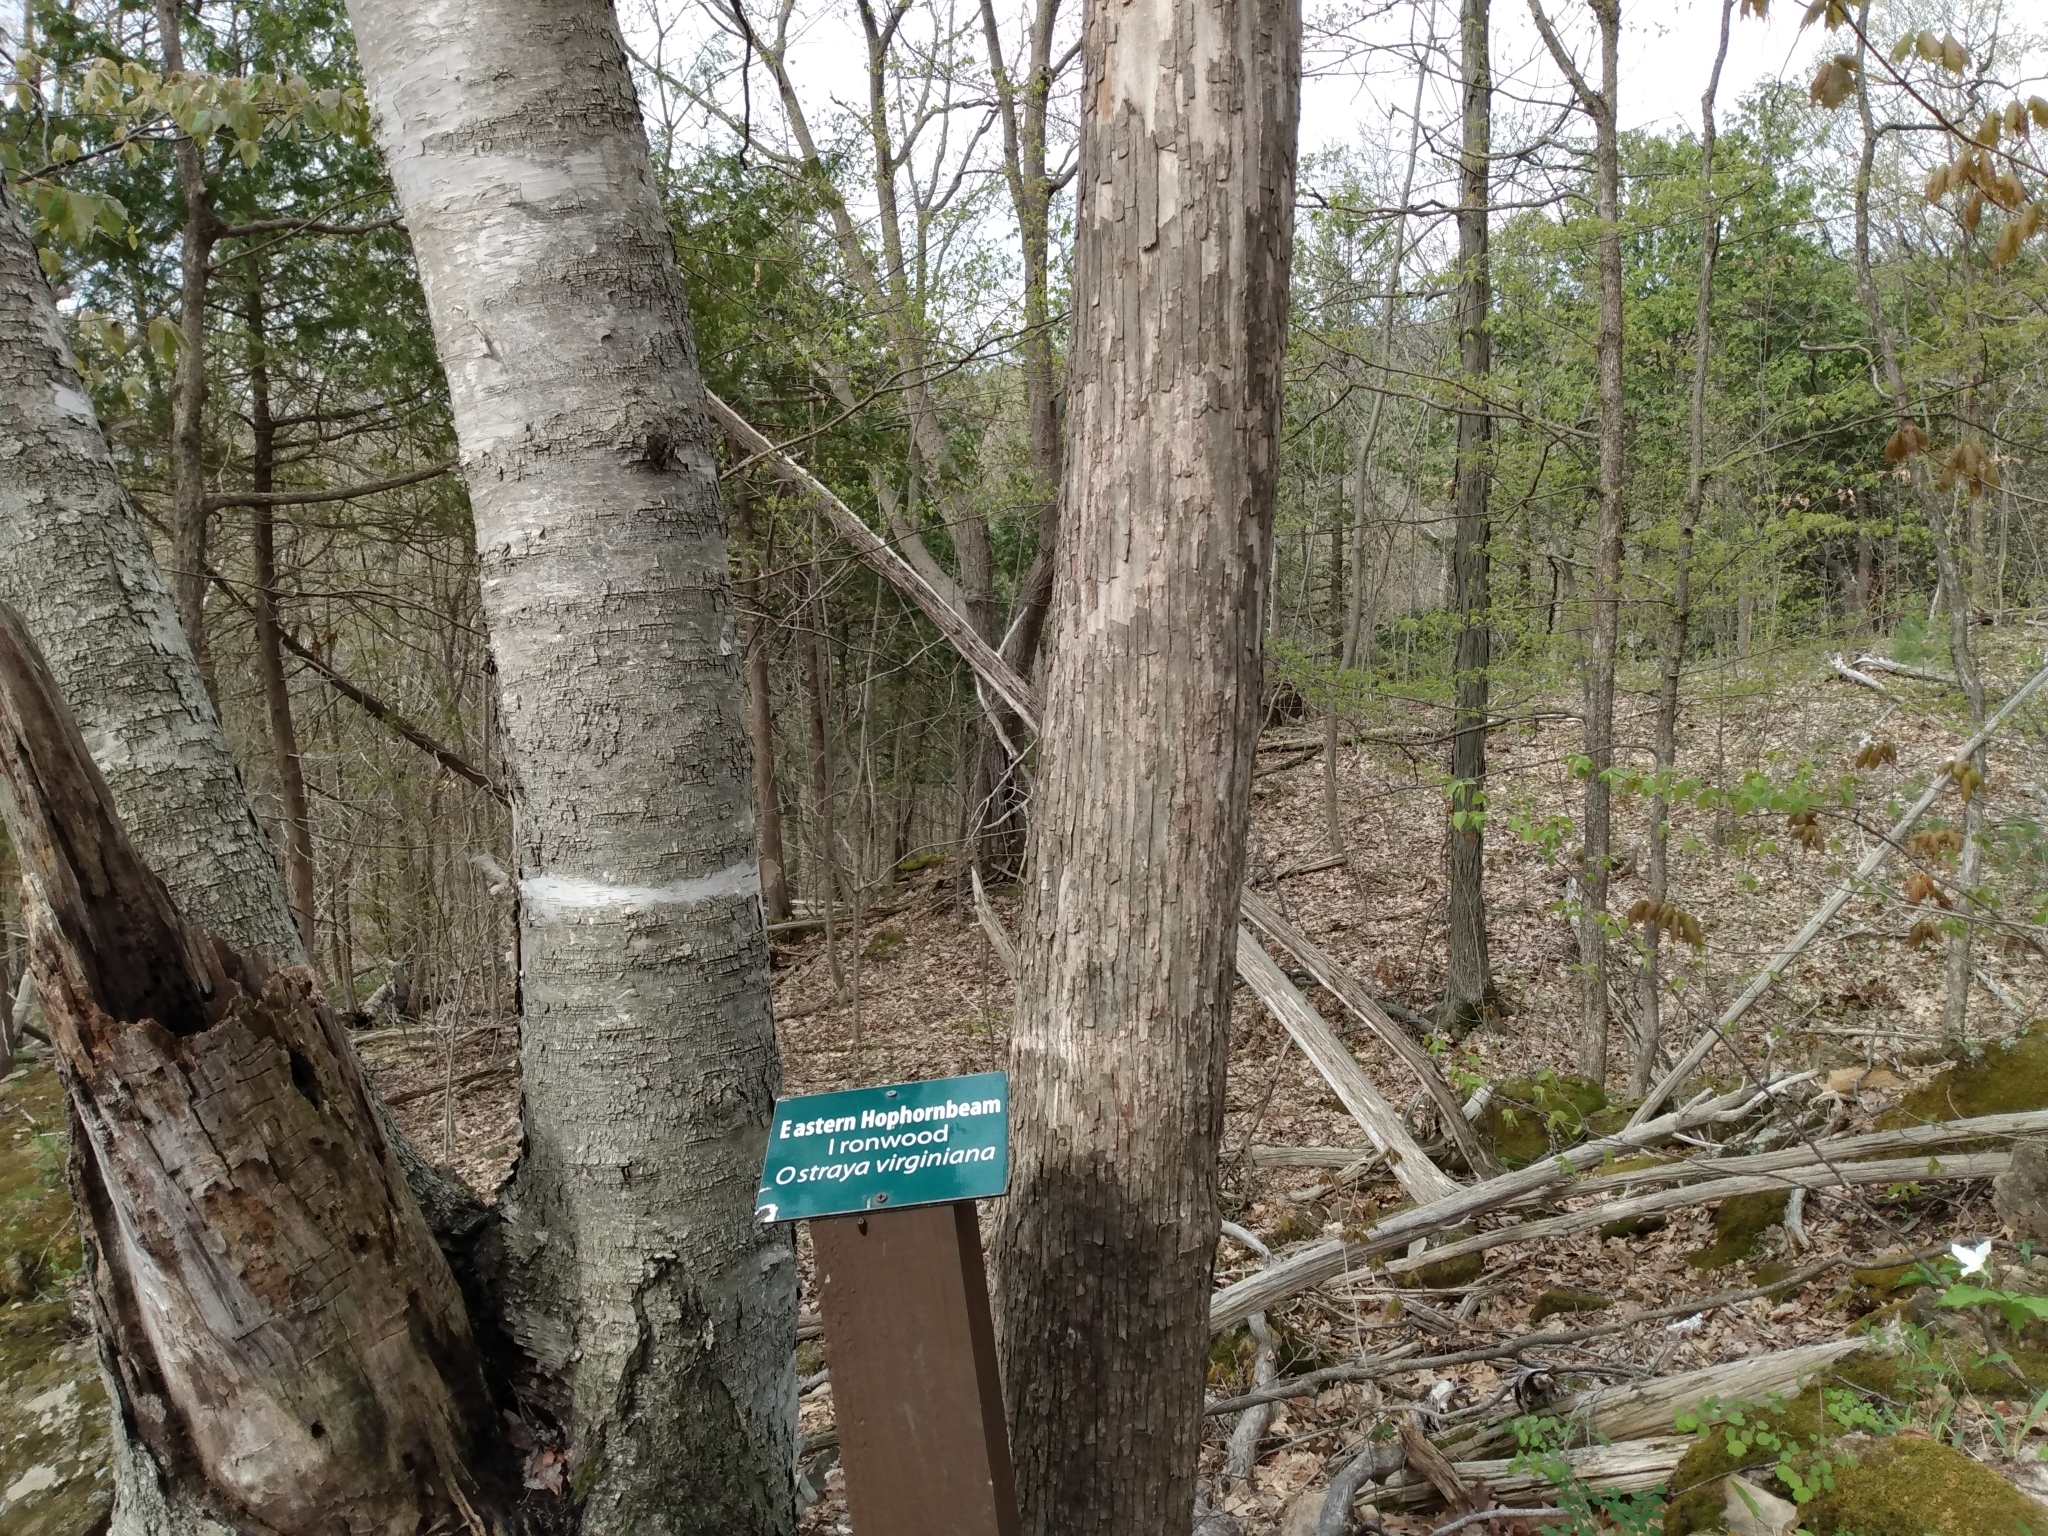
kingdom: Plantae
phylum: Tracheophyta
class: Magnoliopsida
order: Fagales
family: Betulaceae
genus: Ostrya
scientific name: Ostrya virginiana
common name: Ironwood
